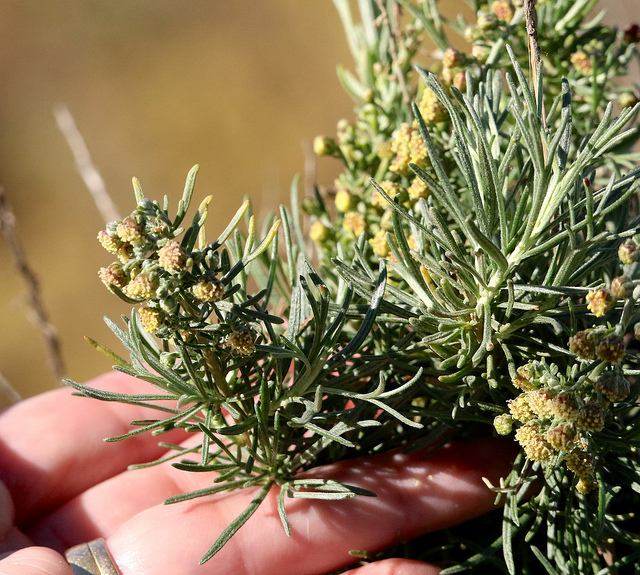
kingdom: Plantae
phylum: Tracheophyta
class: Magnoliopsida
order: Asterales
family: Asteraceae
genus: Artemisia
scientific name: Artemisia californica
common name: California sagebrush
